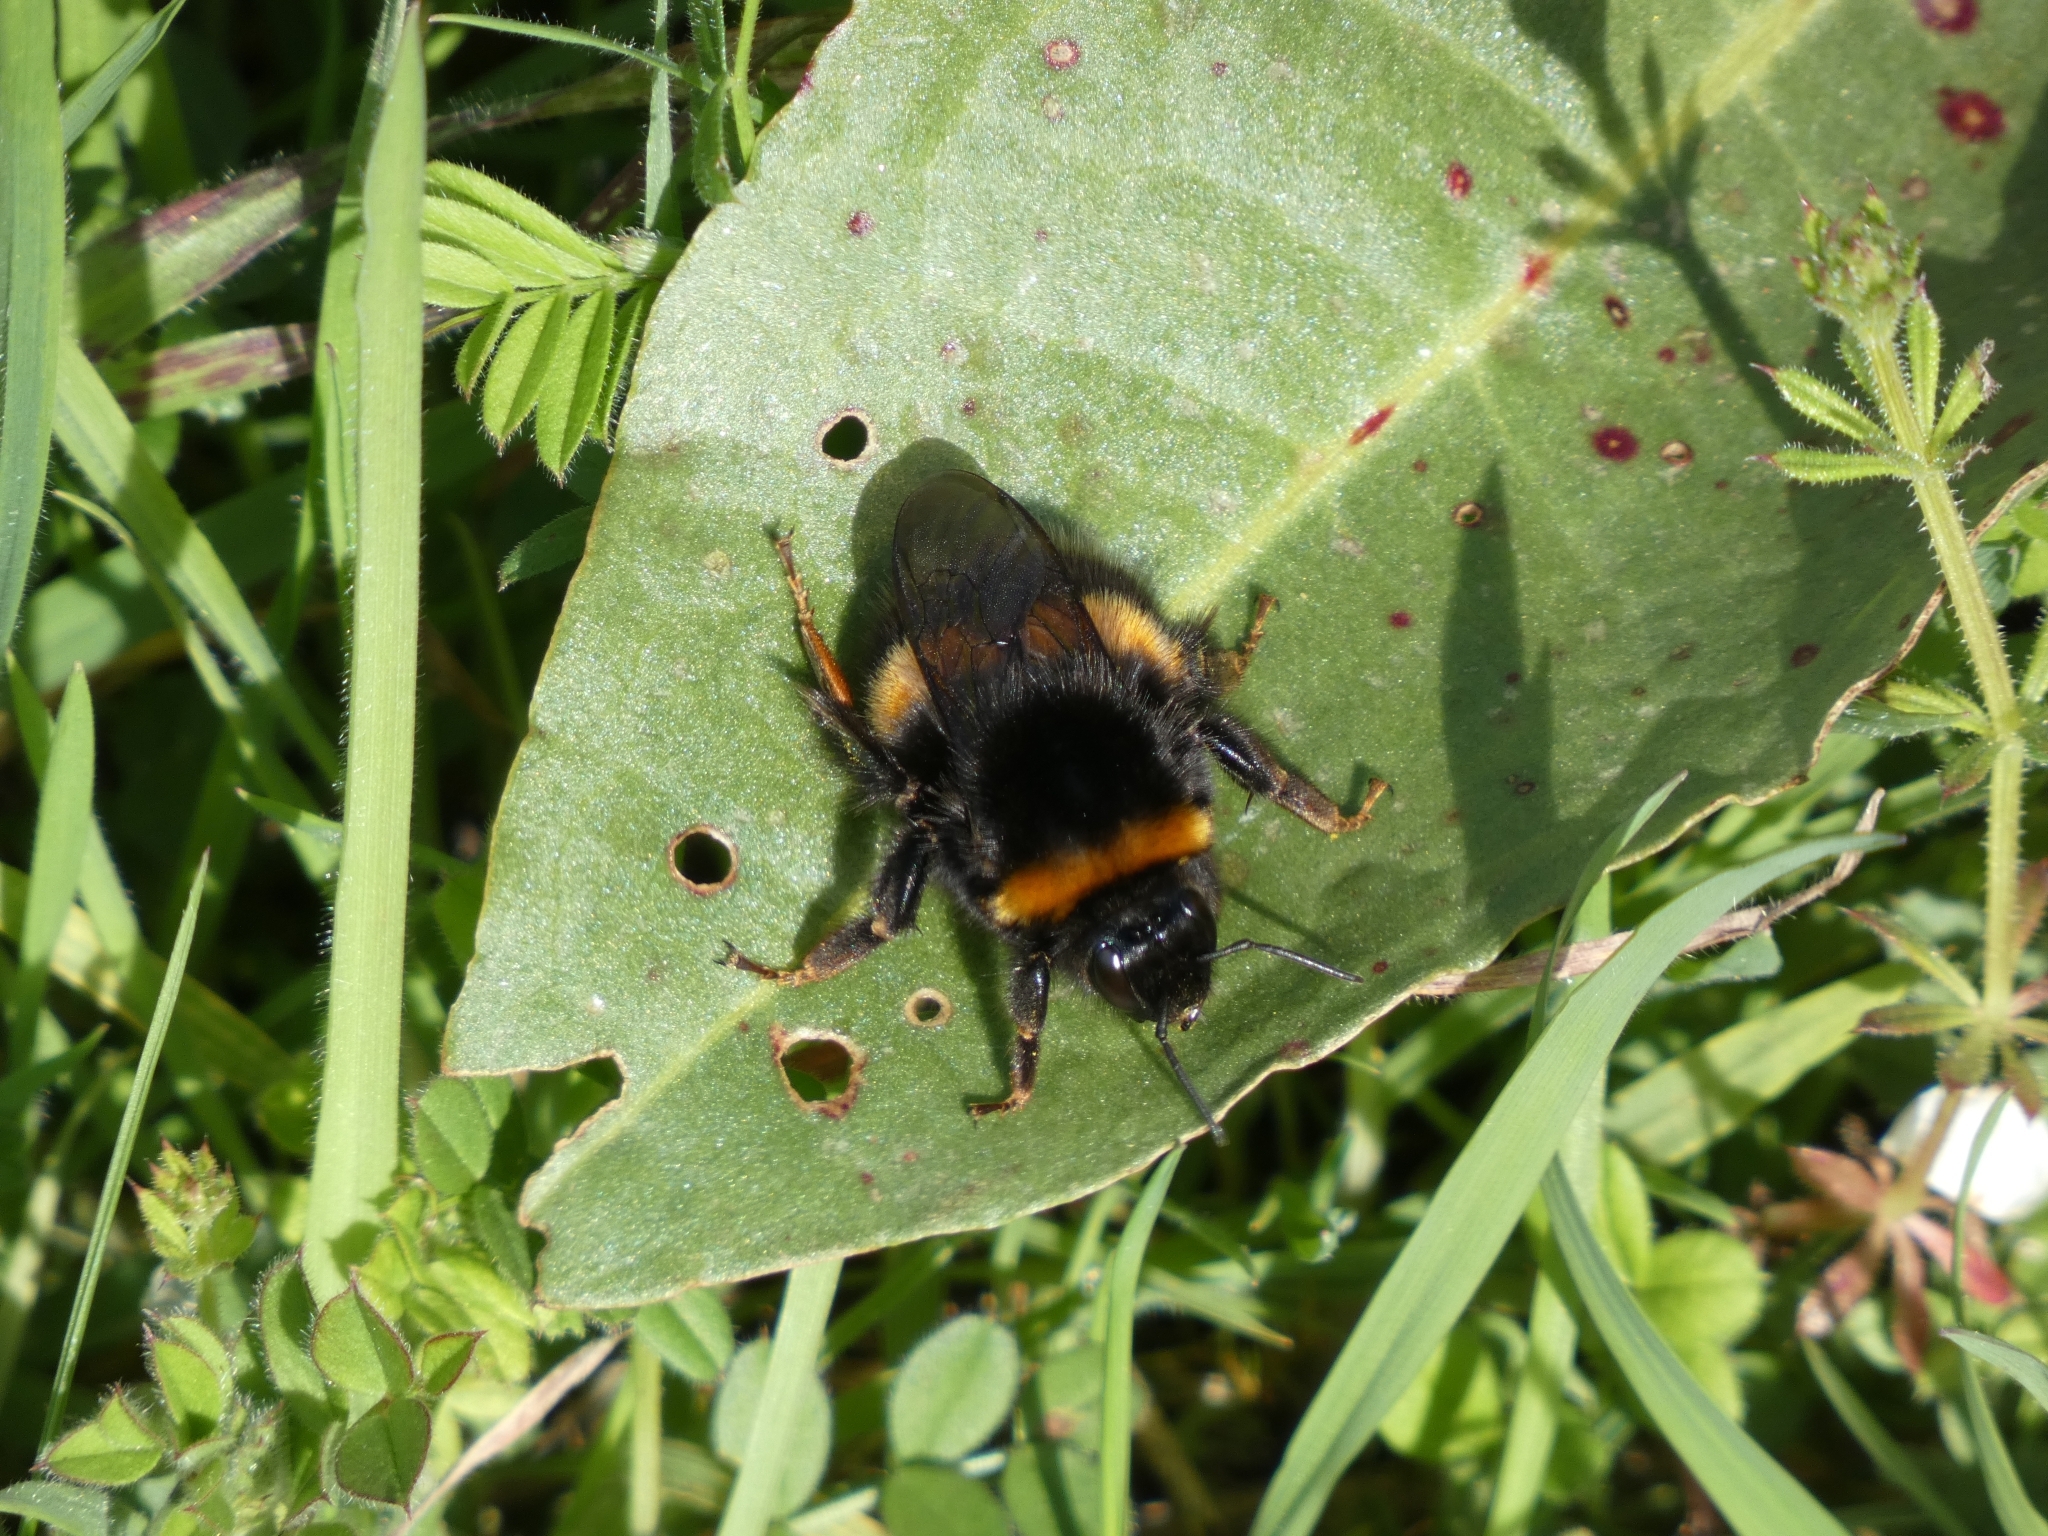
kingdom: Animalia
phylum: Arthropoda
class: Insecta
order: Hymenoptera
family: Apidae
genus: Bombus
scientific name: Bombus terrestris
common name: Buff-tailed bumblebee
